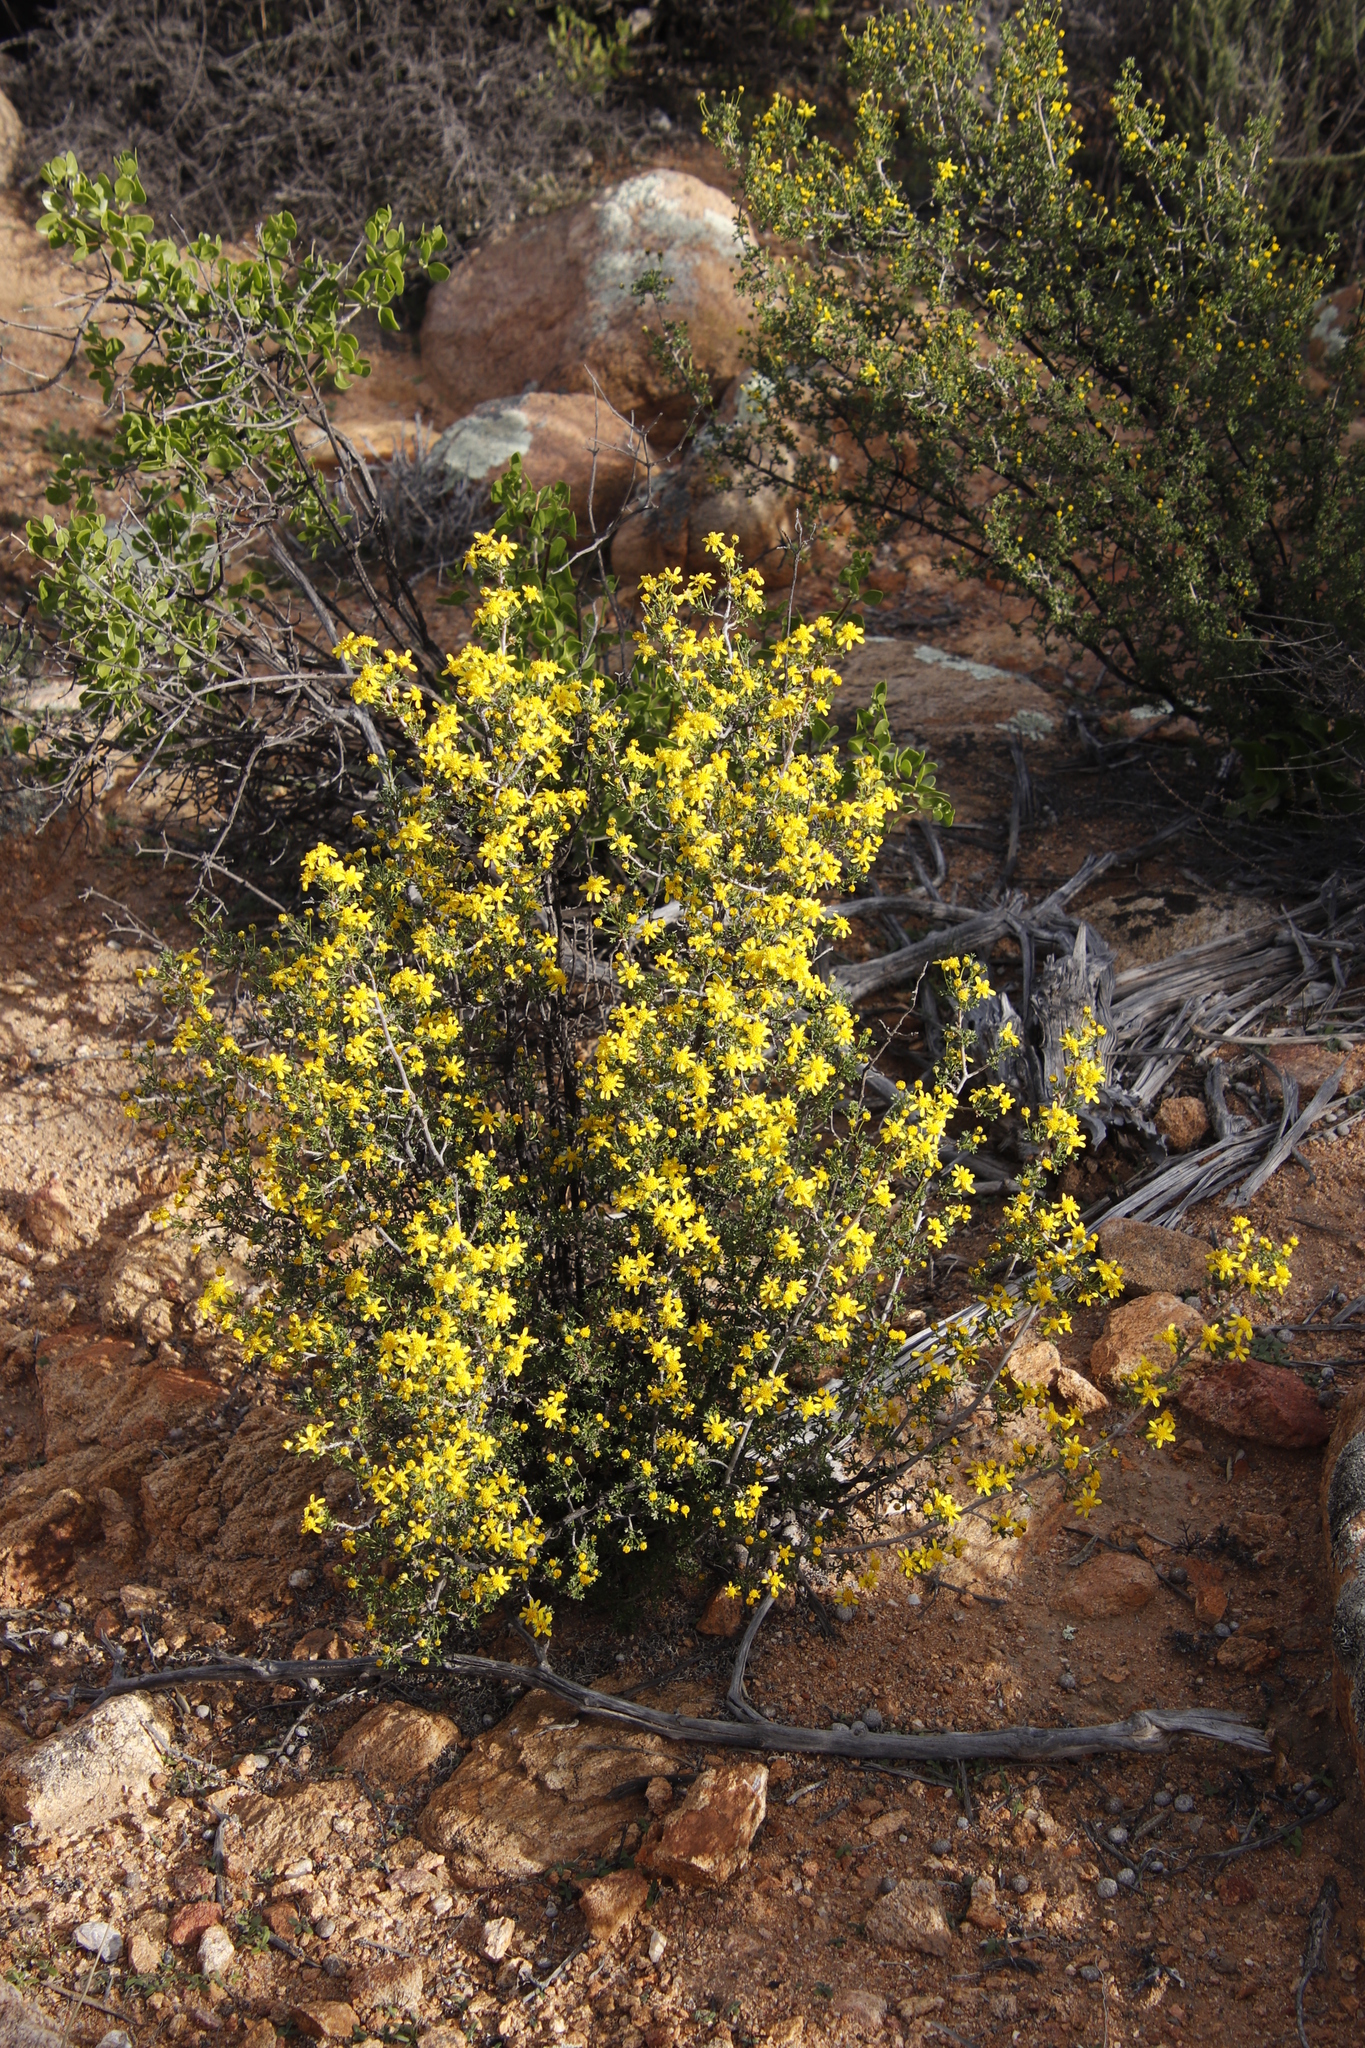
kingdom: Plantae
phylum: Tracheophyta
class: Magnoliopsida
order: Asterales
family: Asteraceae
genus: Euryops
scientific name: Euryops multifidus
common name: Hawk's eye
